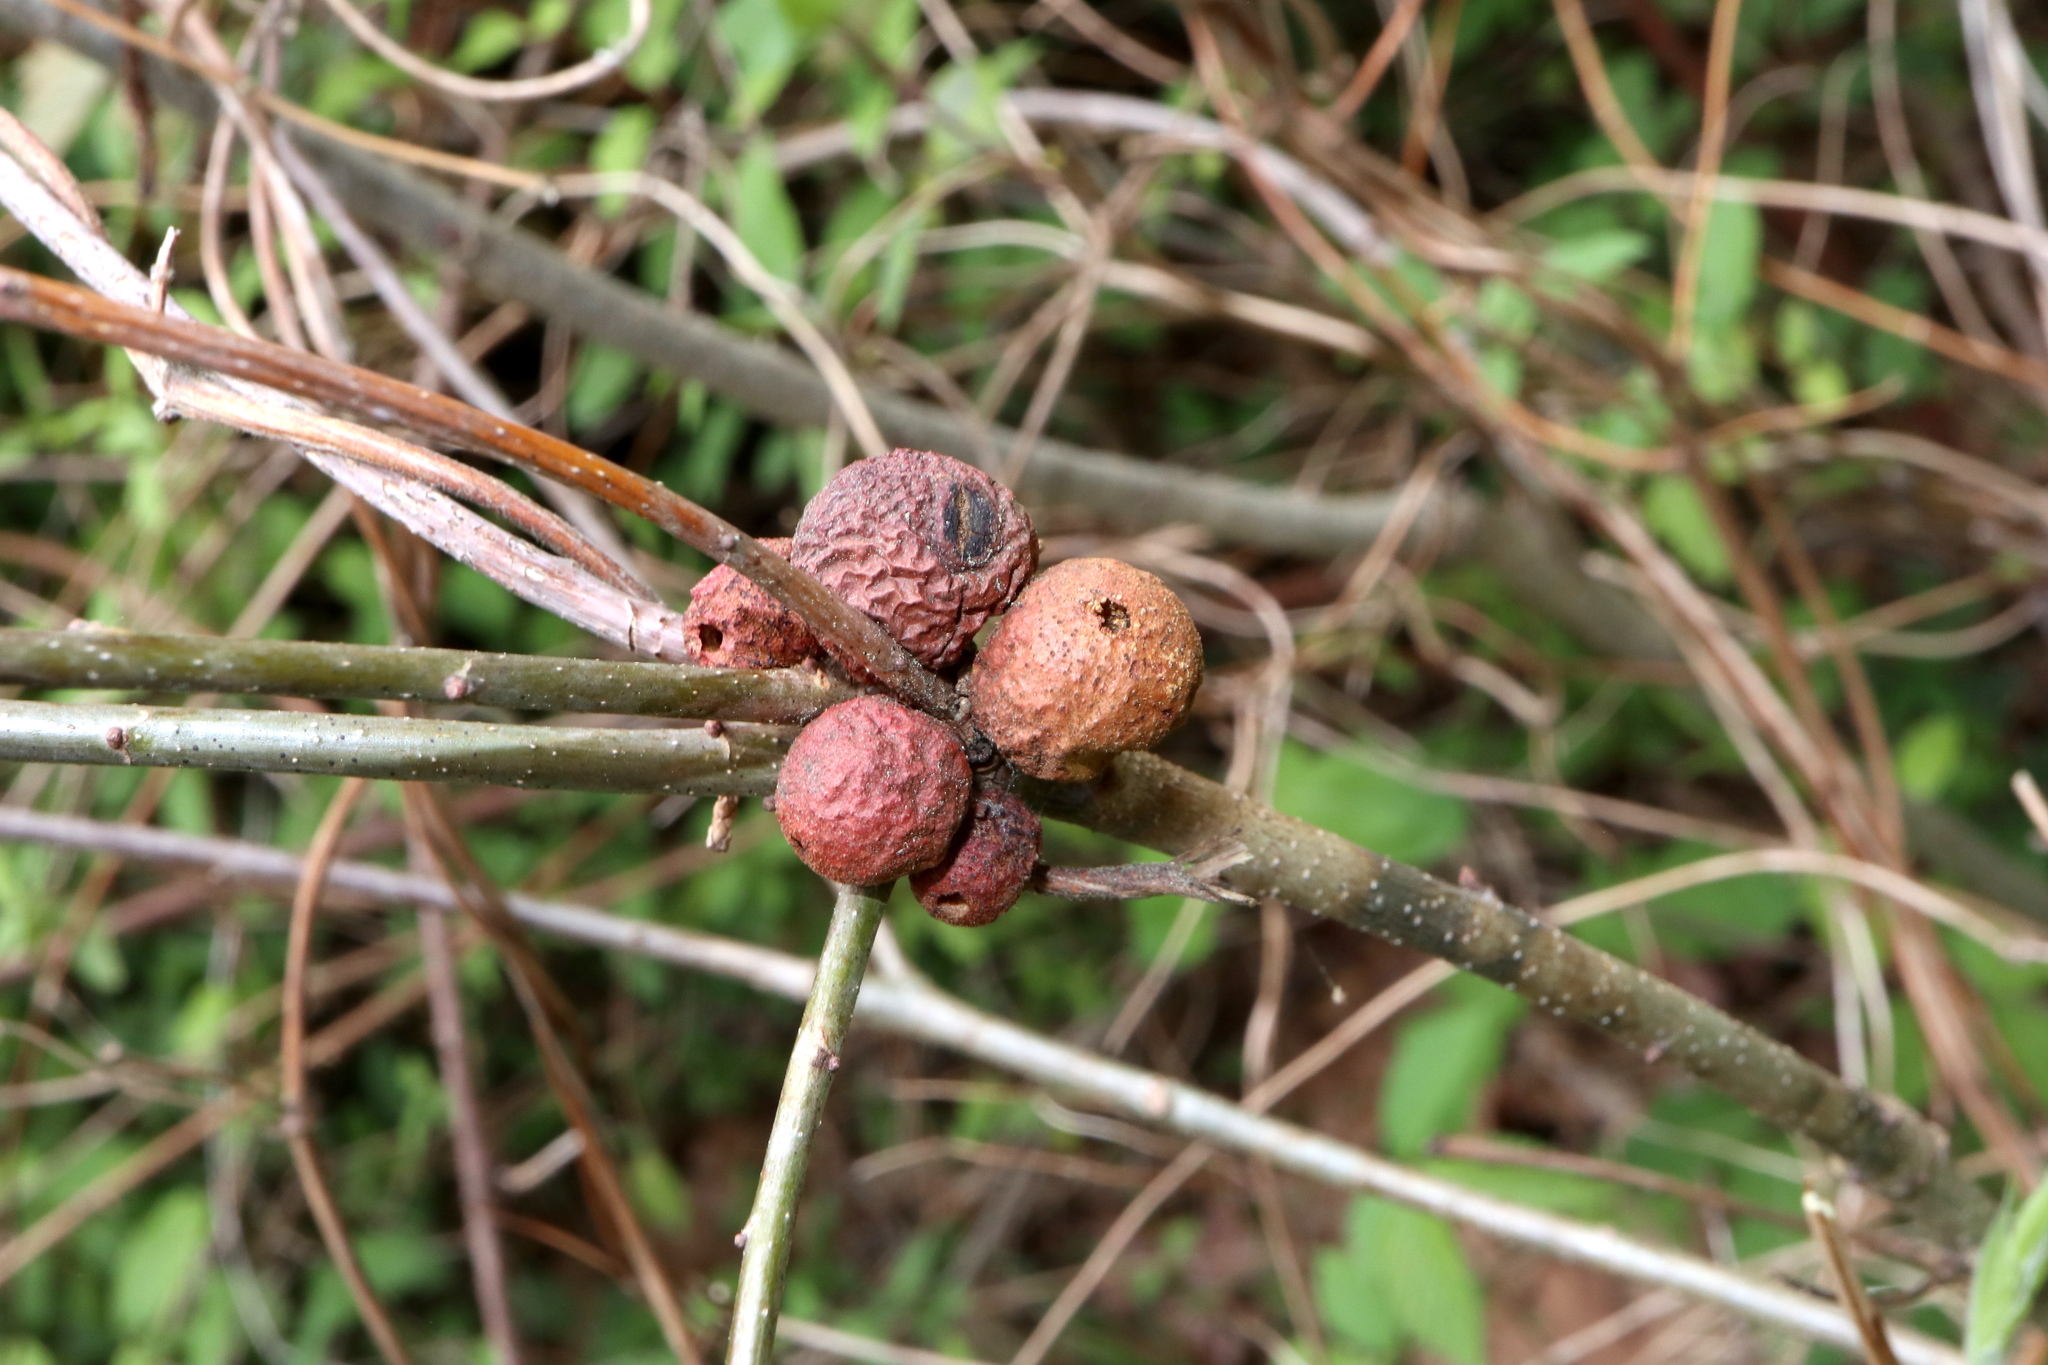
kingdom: Animalia
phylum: Arthropoda
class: Insecta
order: Hymenoptera
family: Cynipidae
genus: Disholcaspis
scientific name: Disholcaspis
